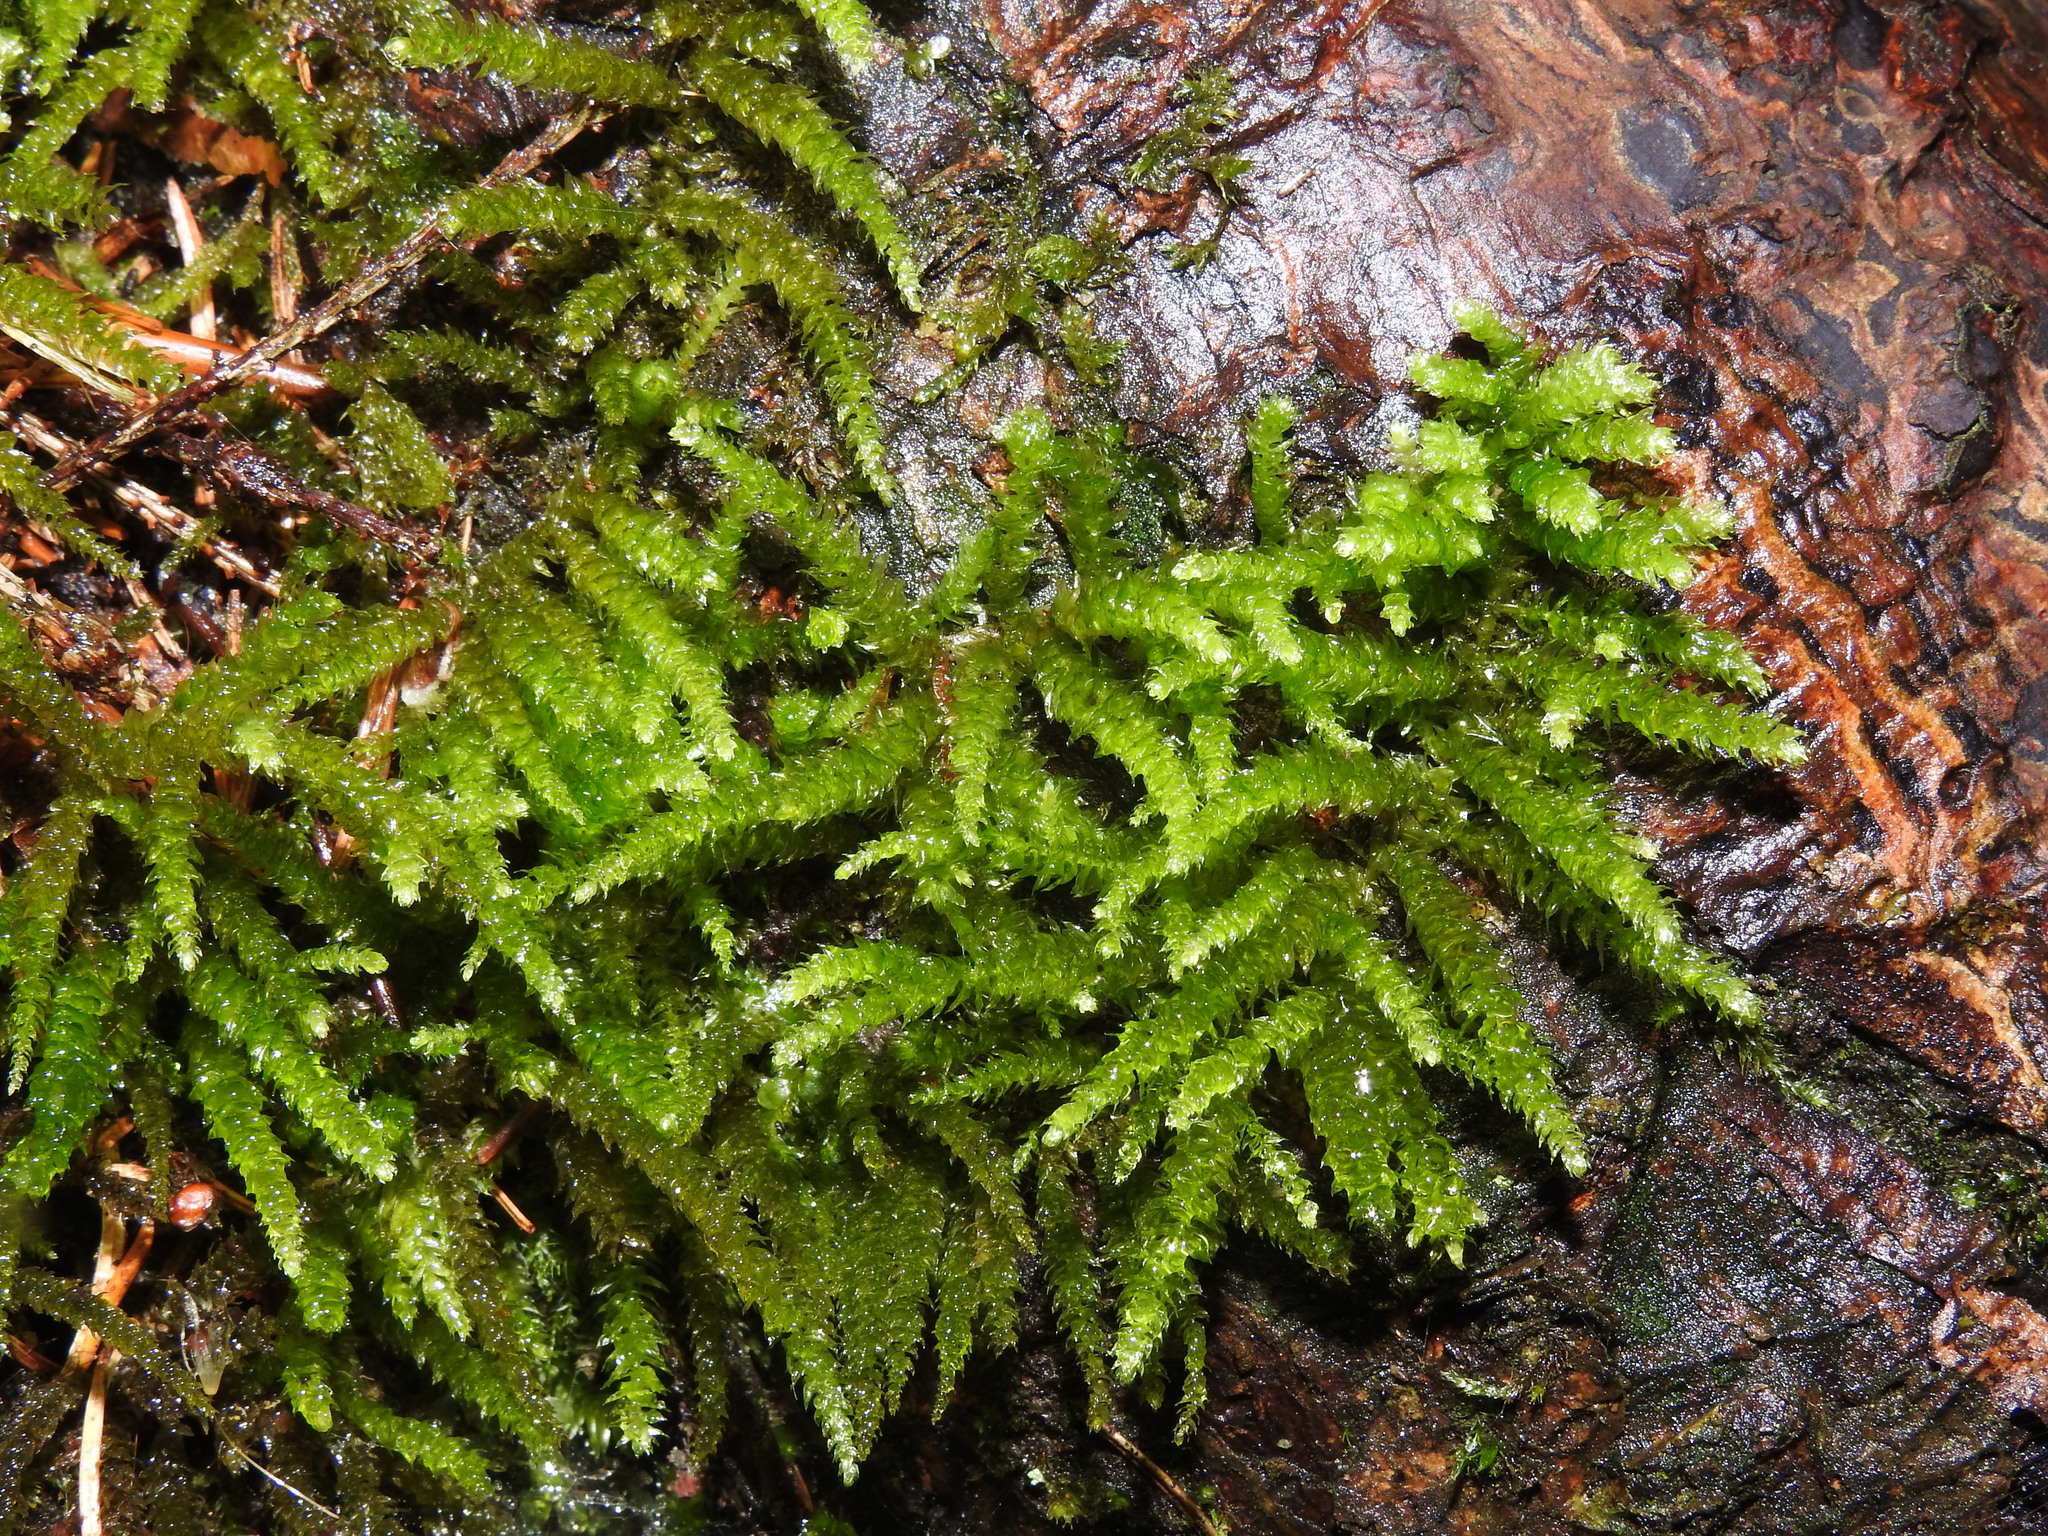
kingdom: Plantae
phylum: Bryophyta
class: Bryopsida
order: Hypnales
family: Brachytheciaceae
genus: Eurhynchium
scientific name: Eurhynchium angustirete
